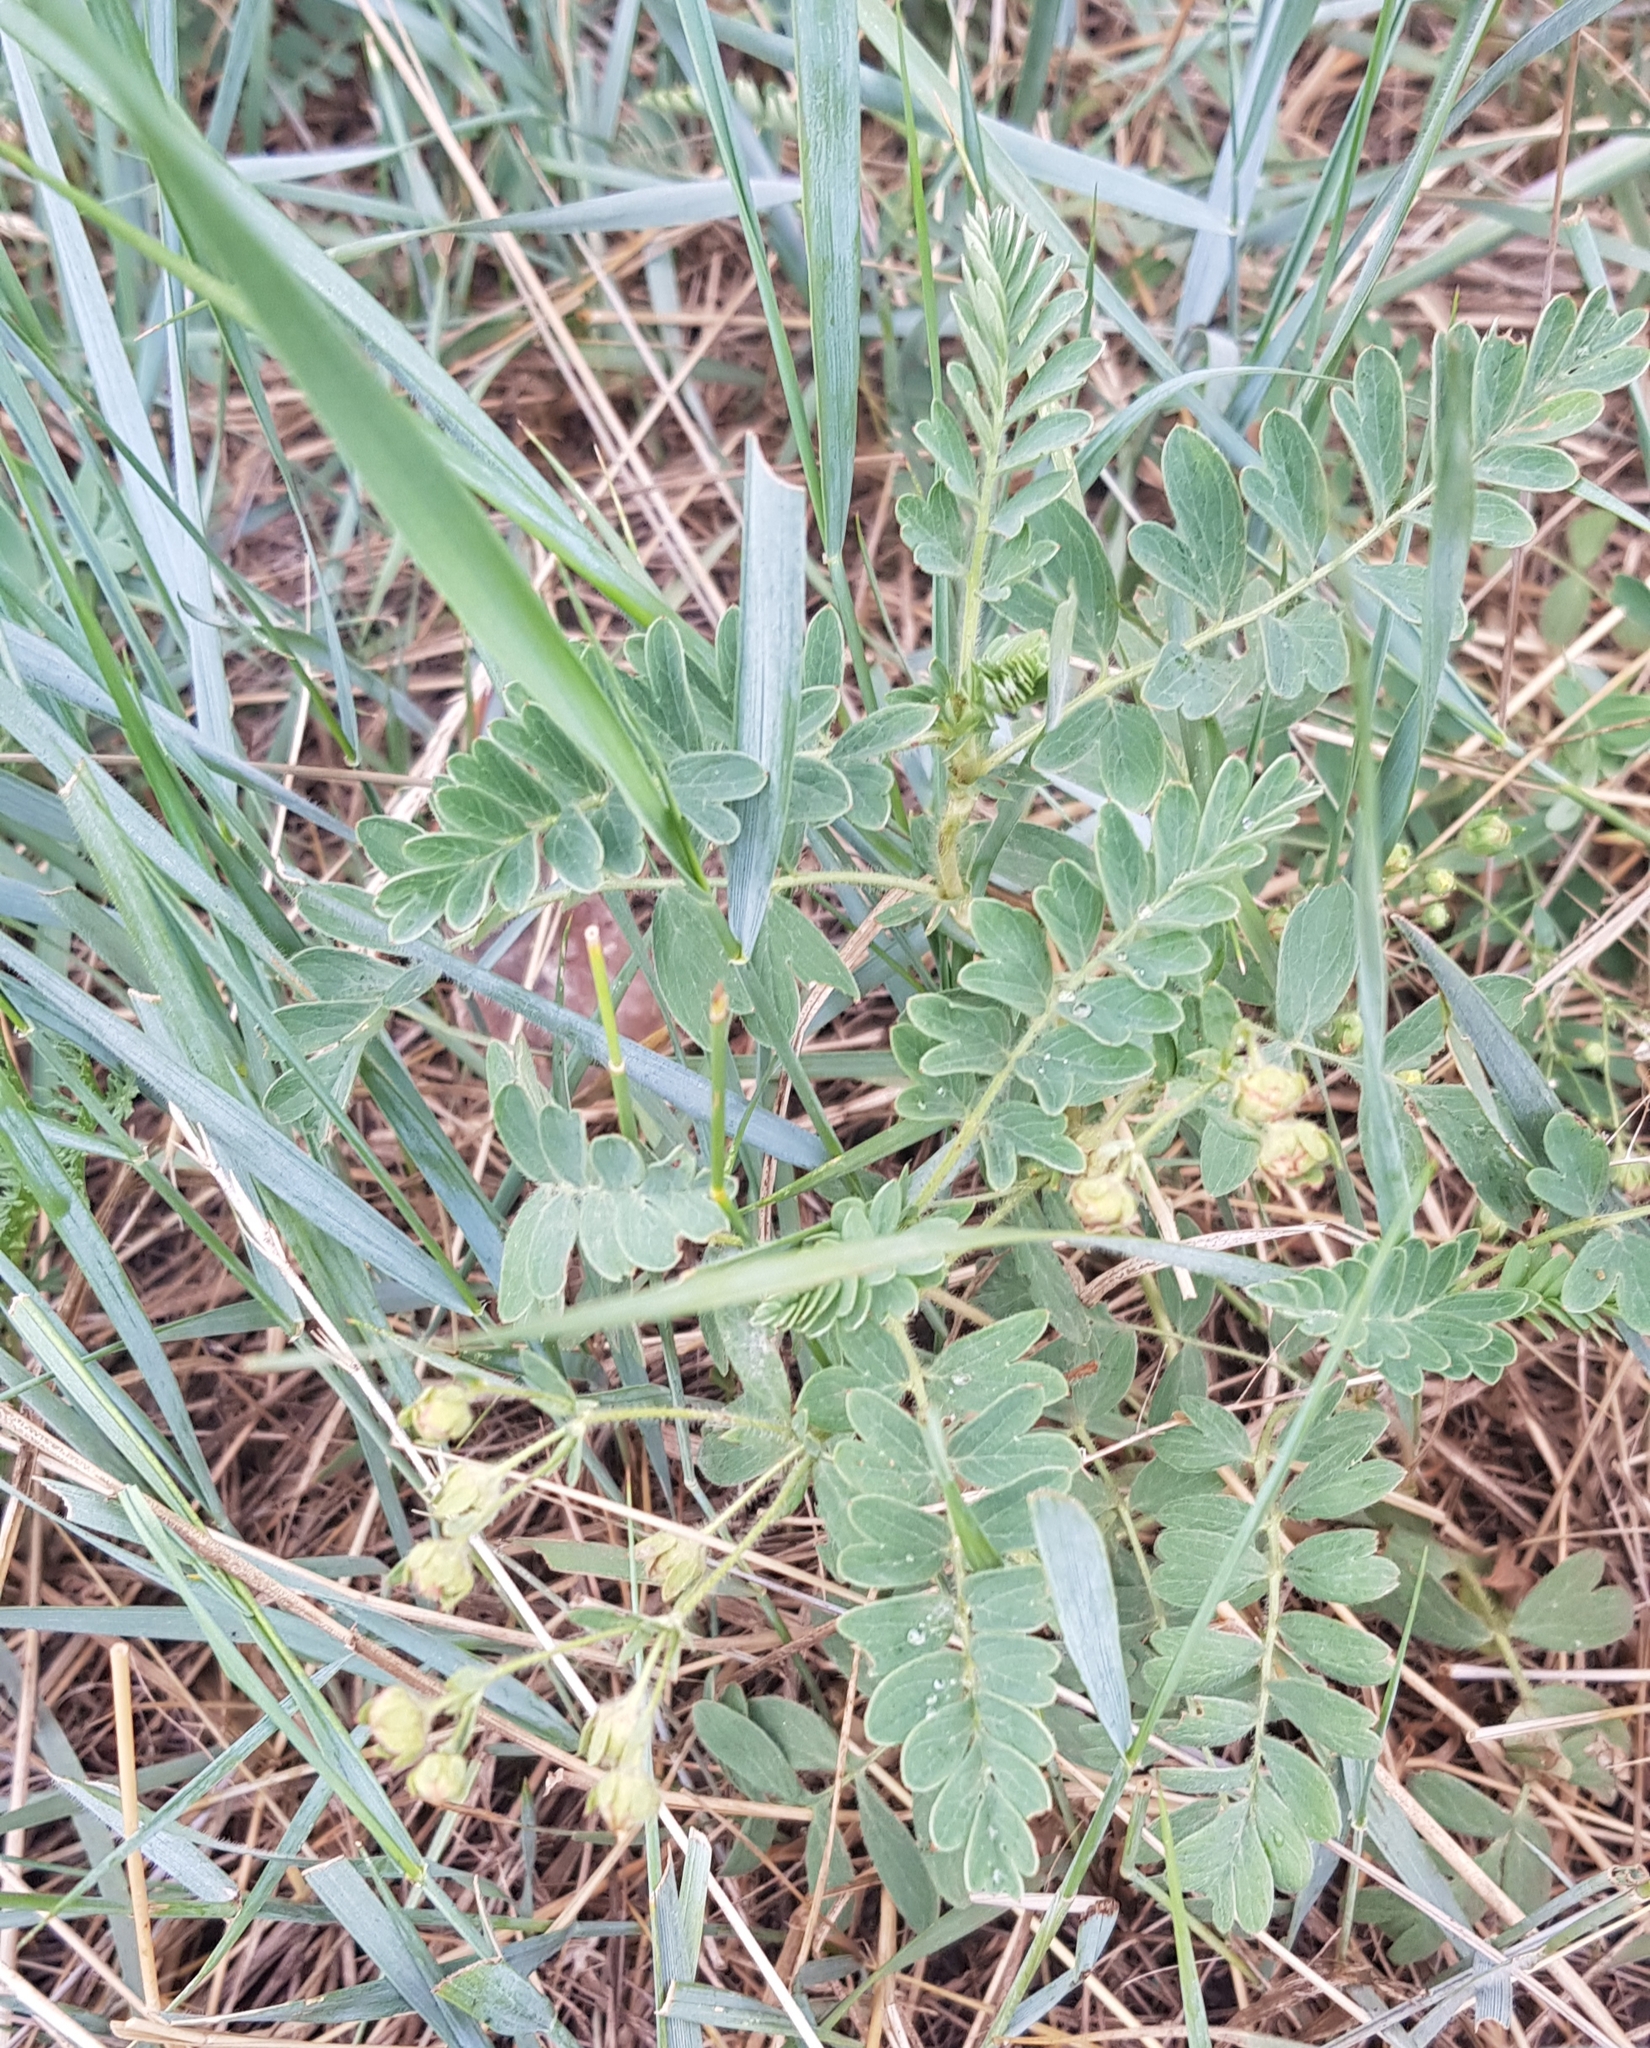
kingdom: Plantae
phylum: Tracheophyta
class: Magnoliopsida
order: Rosales
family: Rosaceae
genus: Sibbaldianthe
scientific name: Sibbaldianthe bifurca
